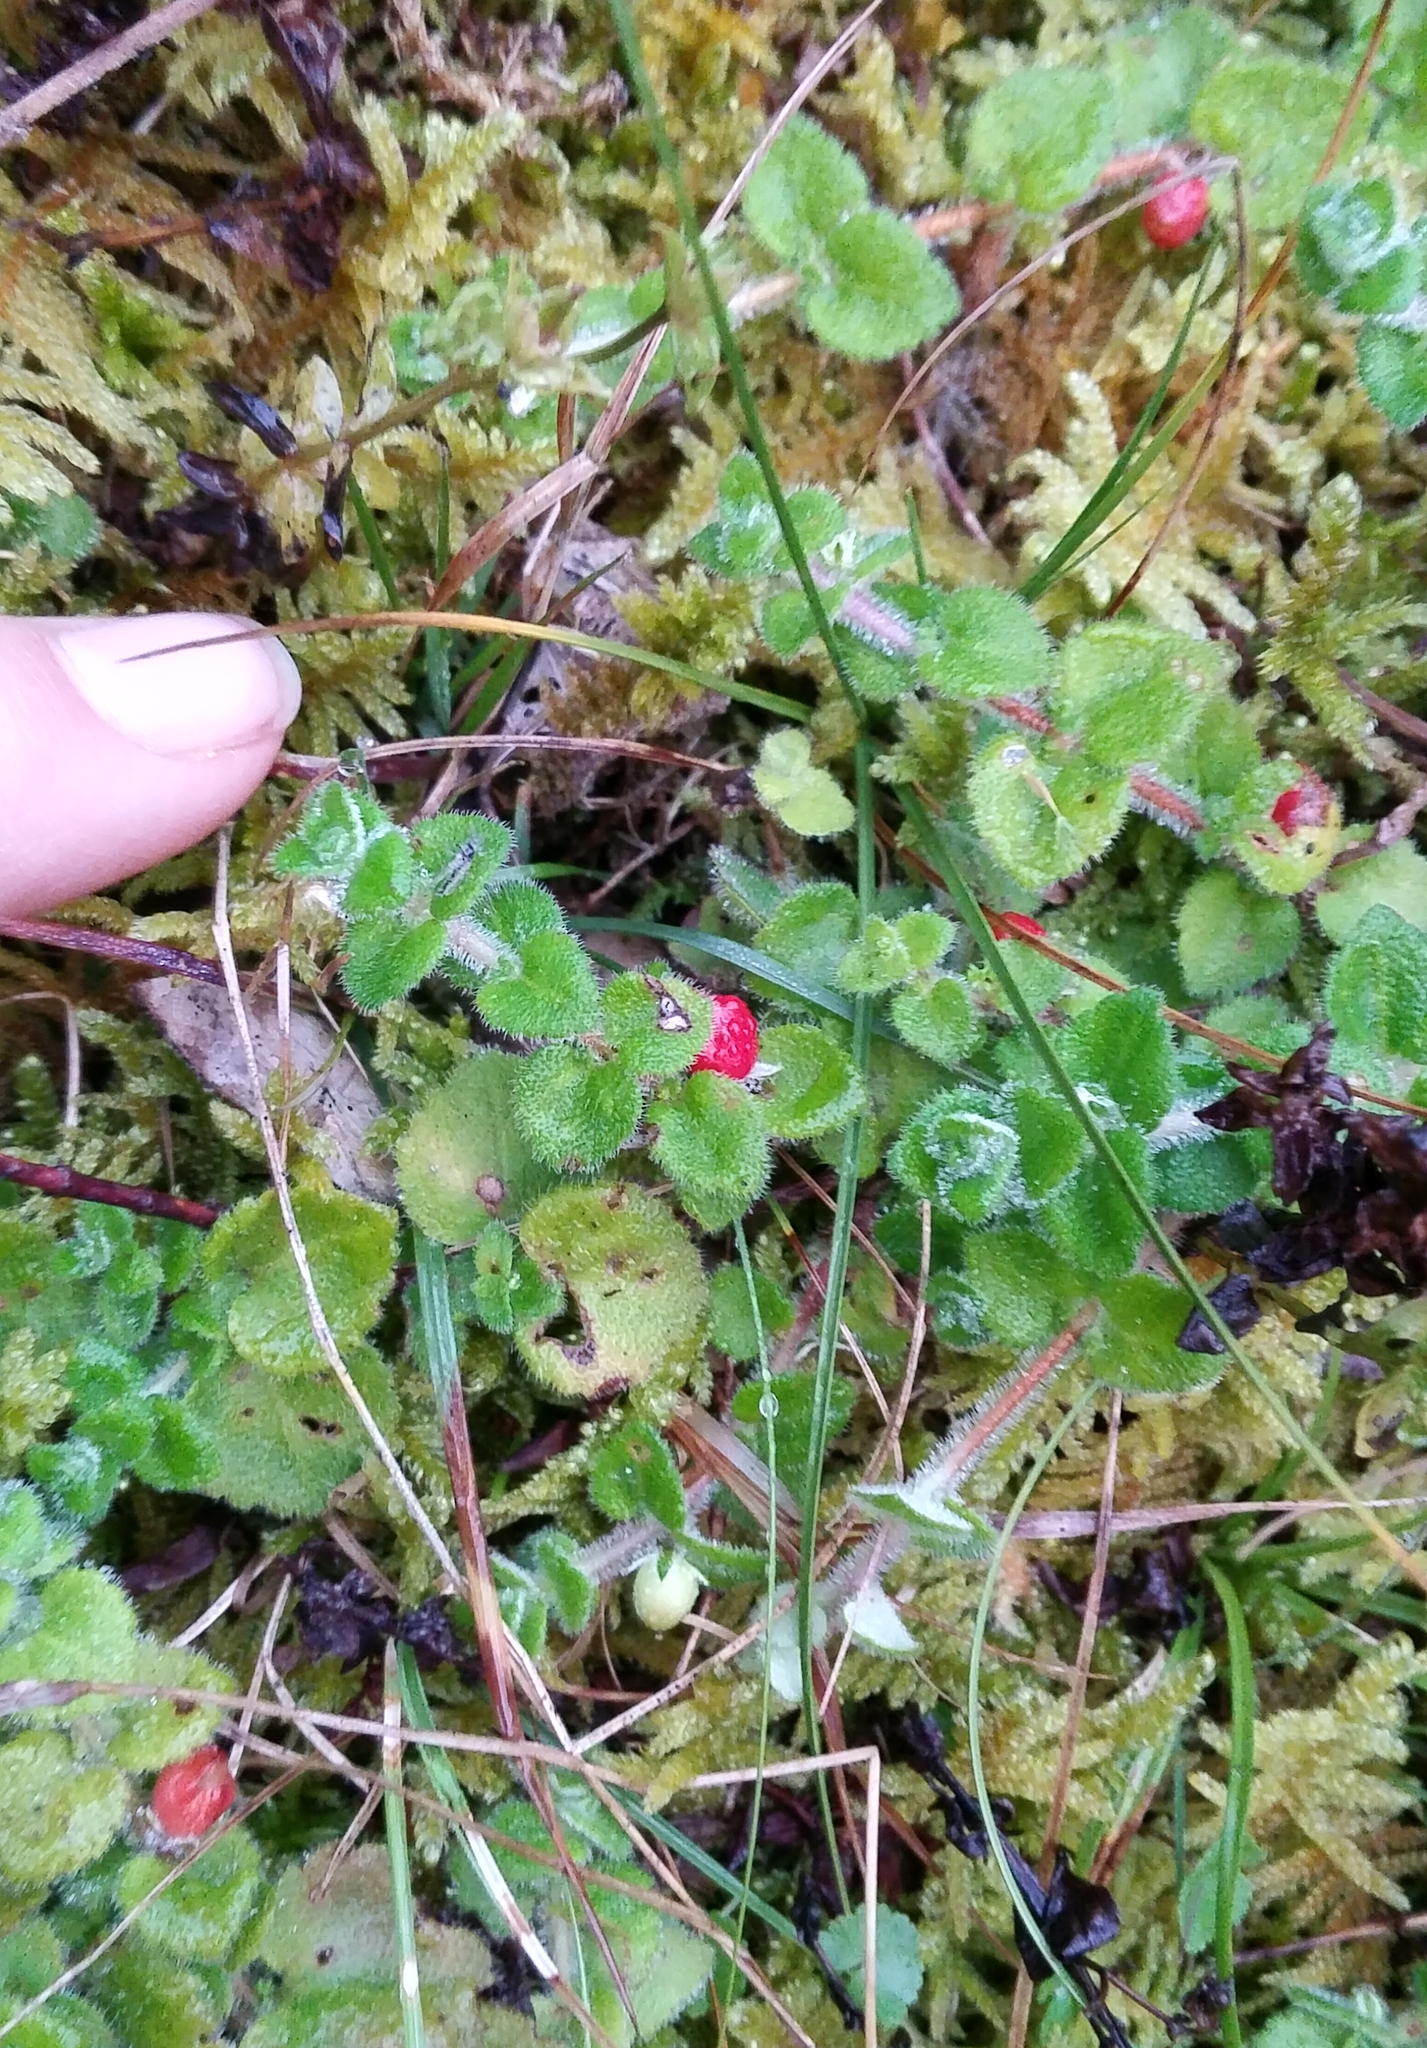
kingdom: Plantae
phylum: Tracheophyta
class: Magnoliopsida
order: Lamiales
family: Plantaginaceae
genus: Hemiphragma
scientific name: Hemiphragma heterophyllum
